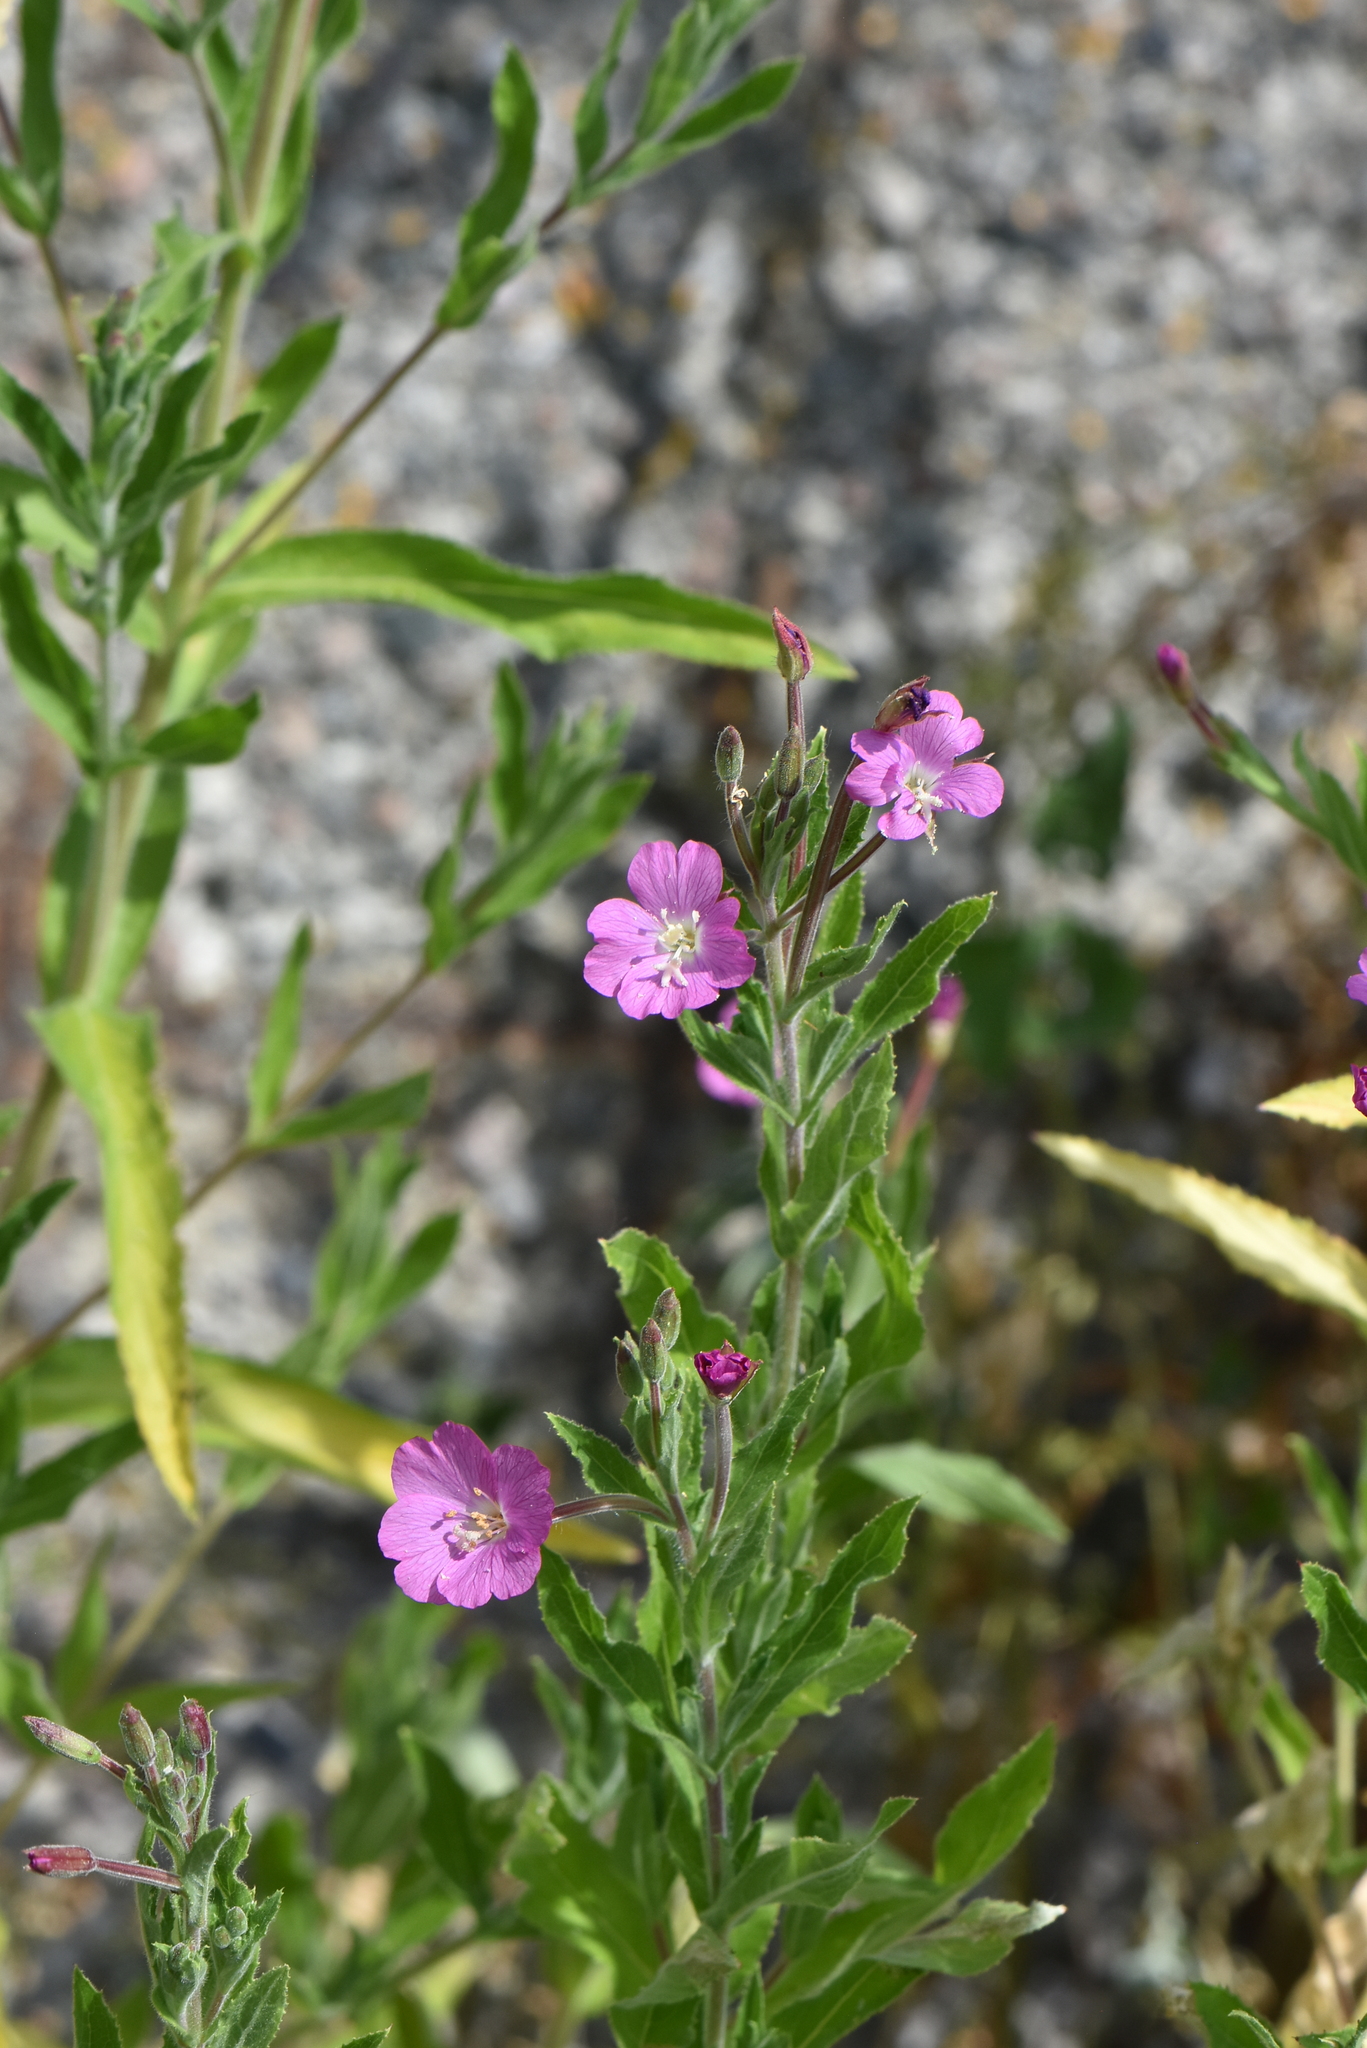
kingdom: Plantae
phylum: Tracheophyta
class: Magnoliopsida
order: Myrtales
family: Onagraceae
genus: Epilobium
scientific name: Epilobium hirsutum
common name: Great willowherb
